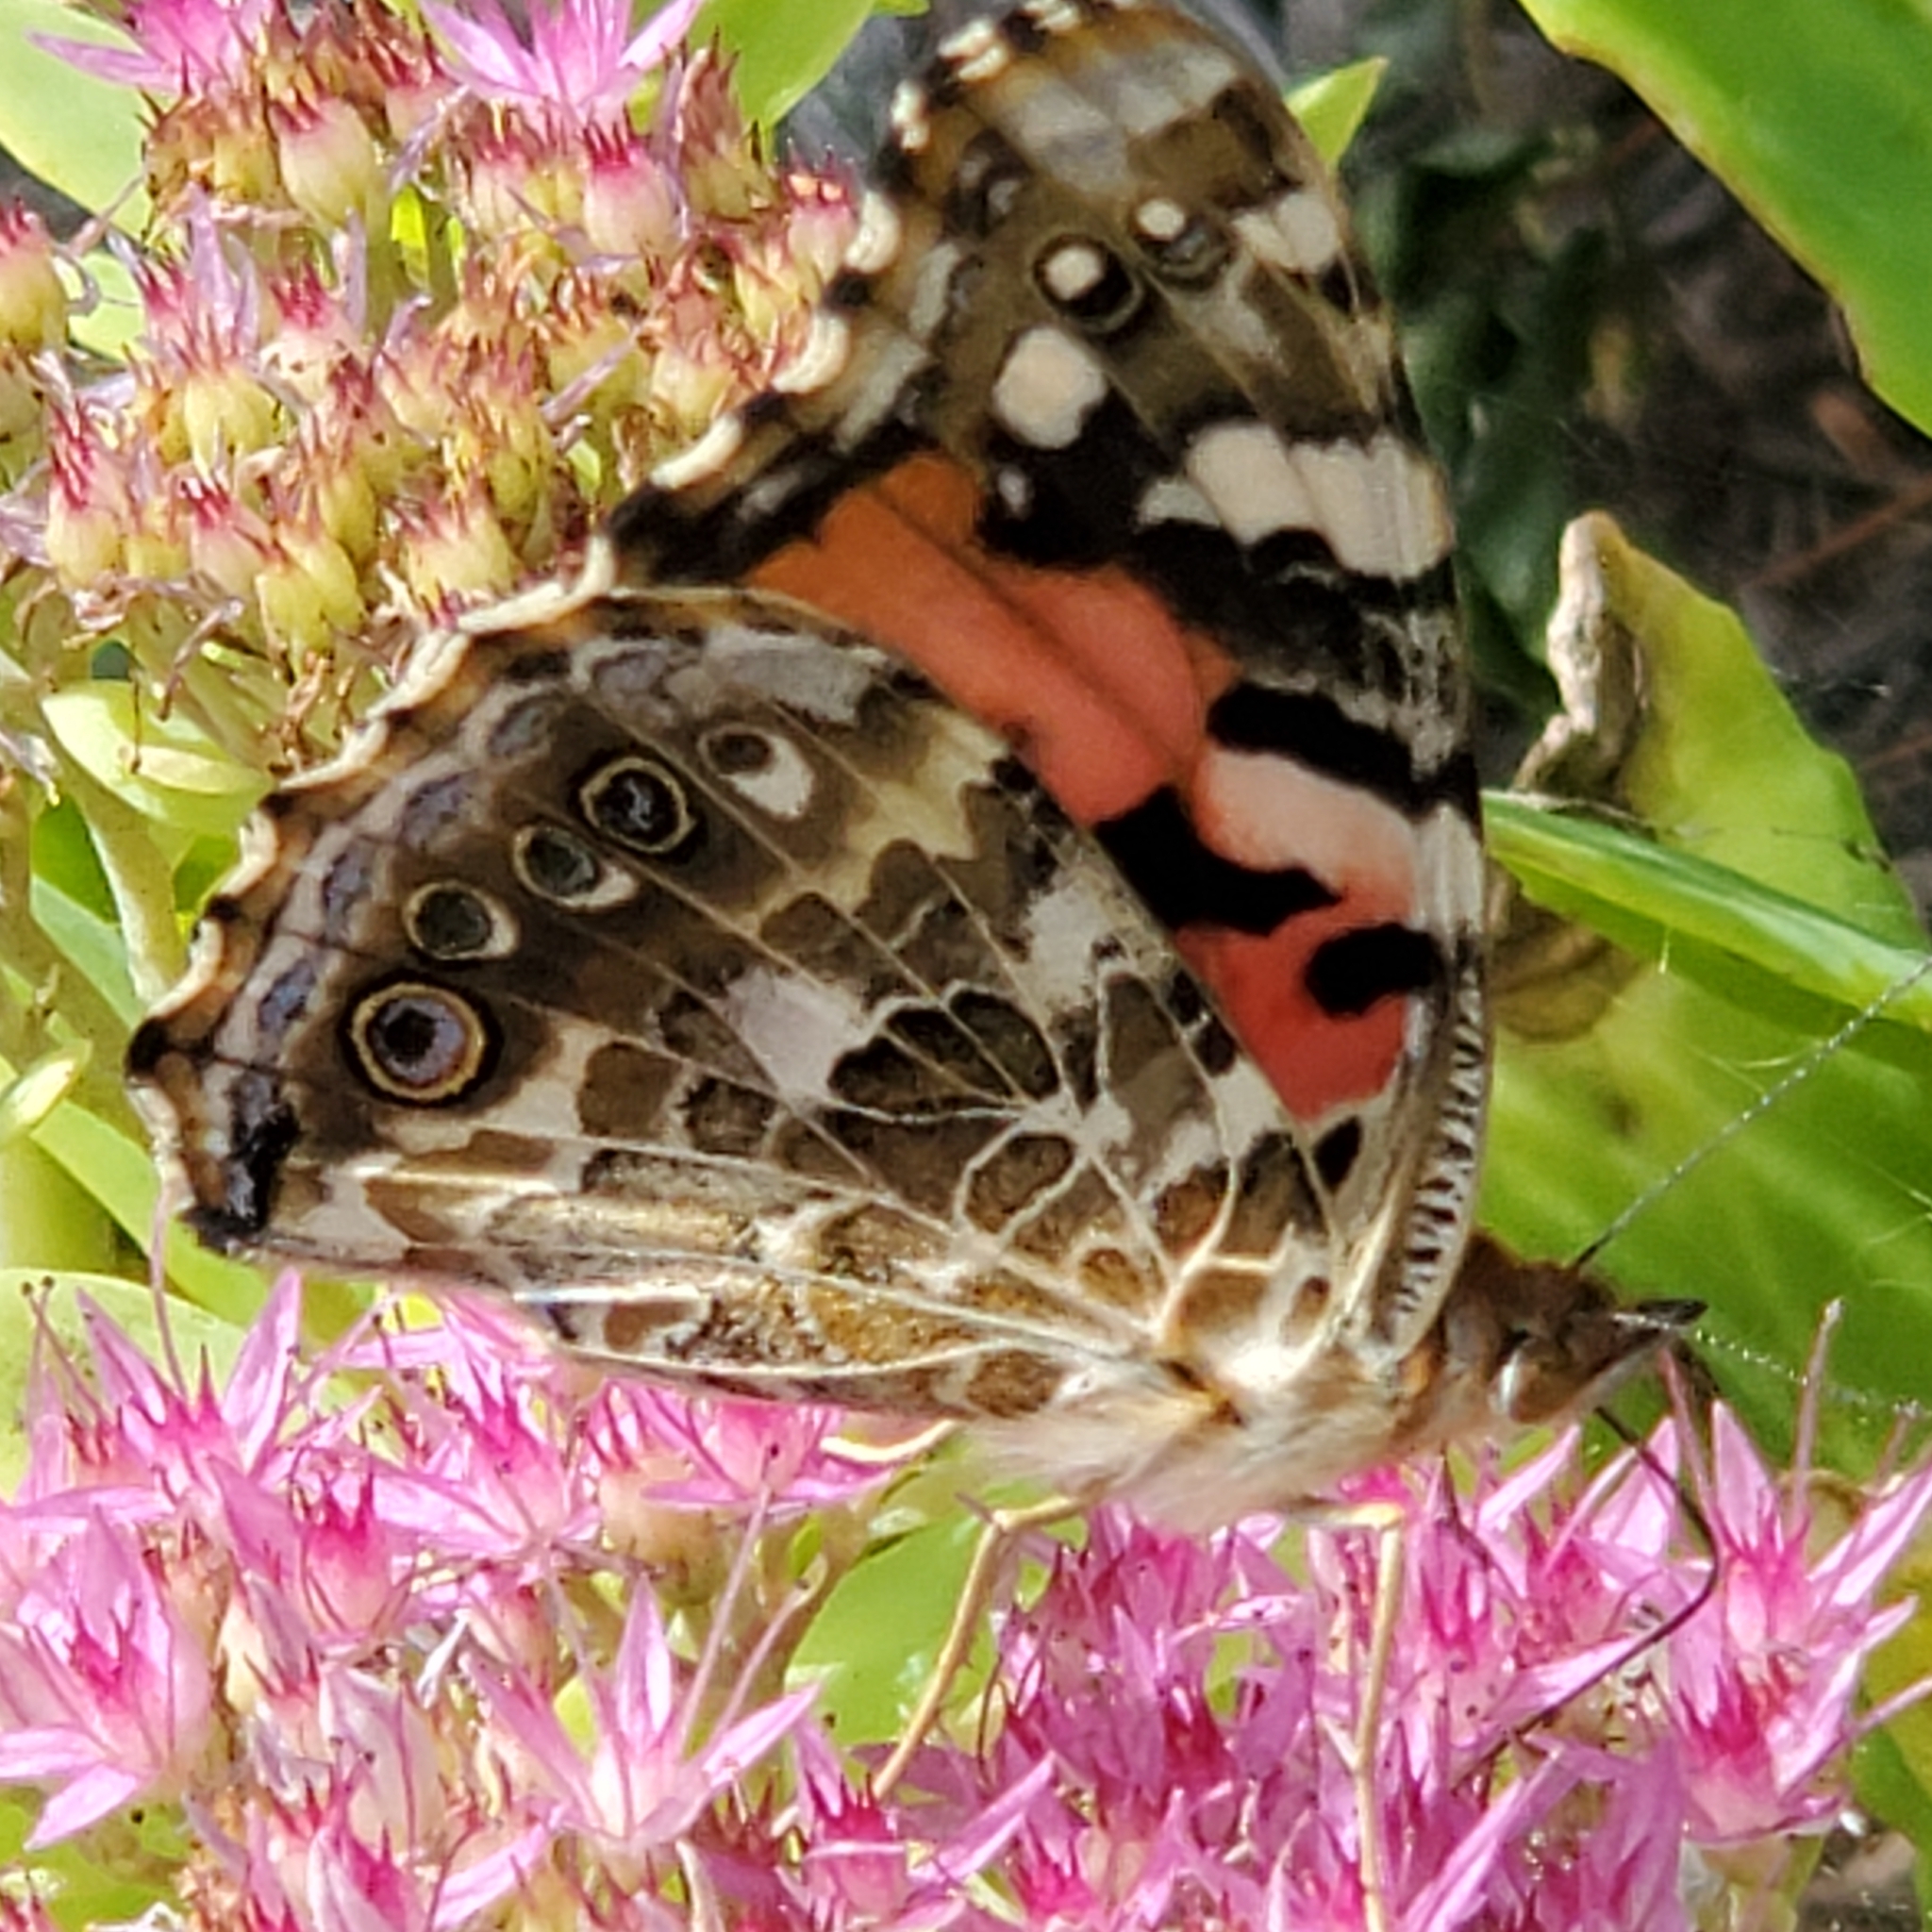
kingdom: Animalia
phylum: Arthropoda
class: Insecta
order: Lepidoptera
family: Nymphalidae
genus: Vanessa
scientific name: Vanessa cardui
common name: Painted lady
